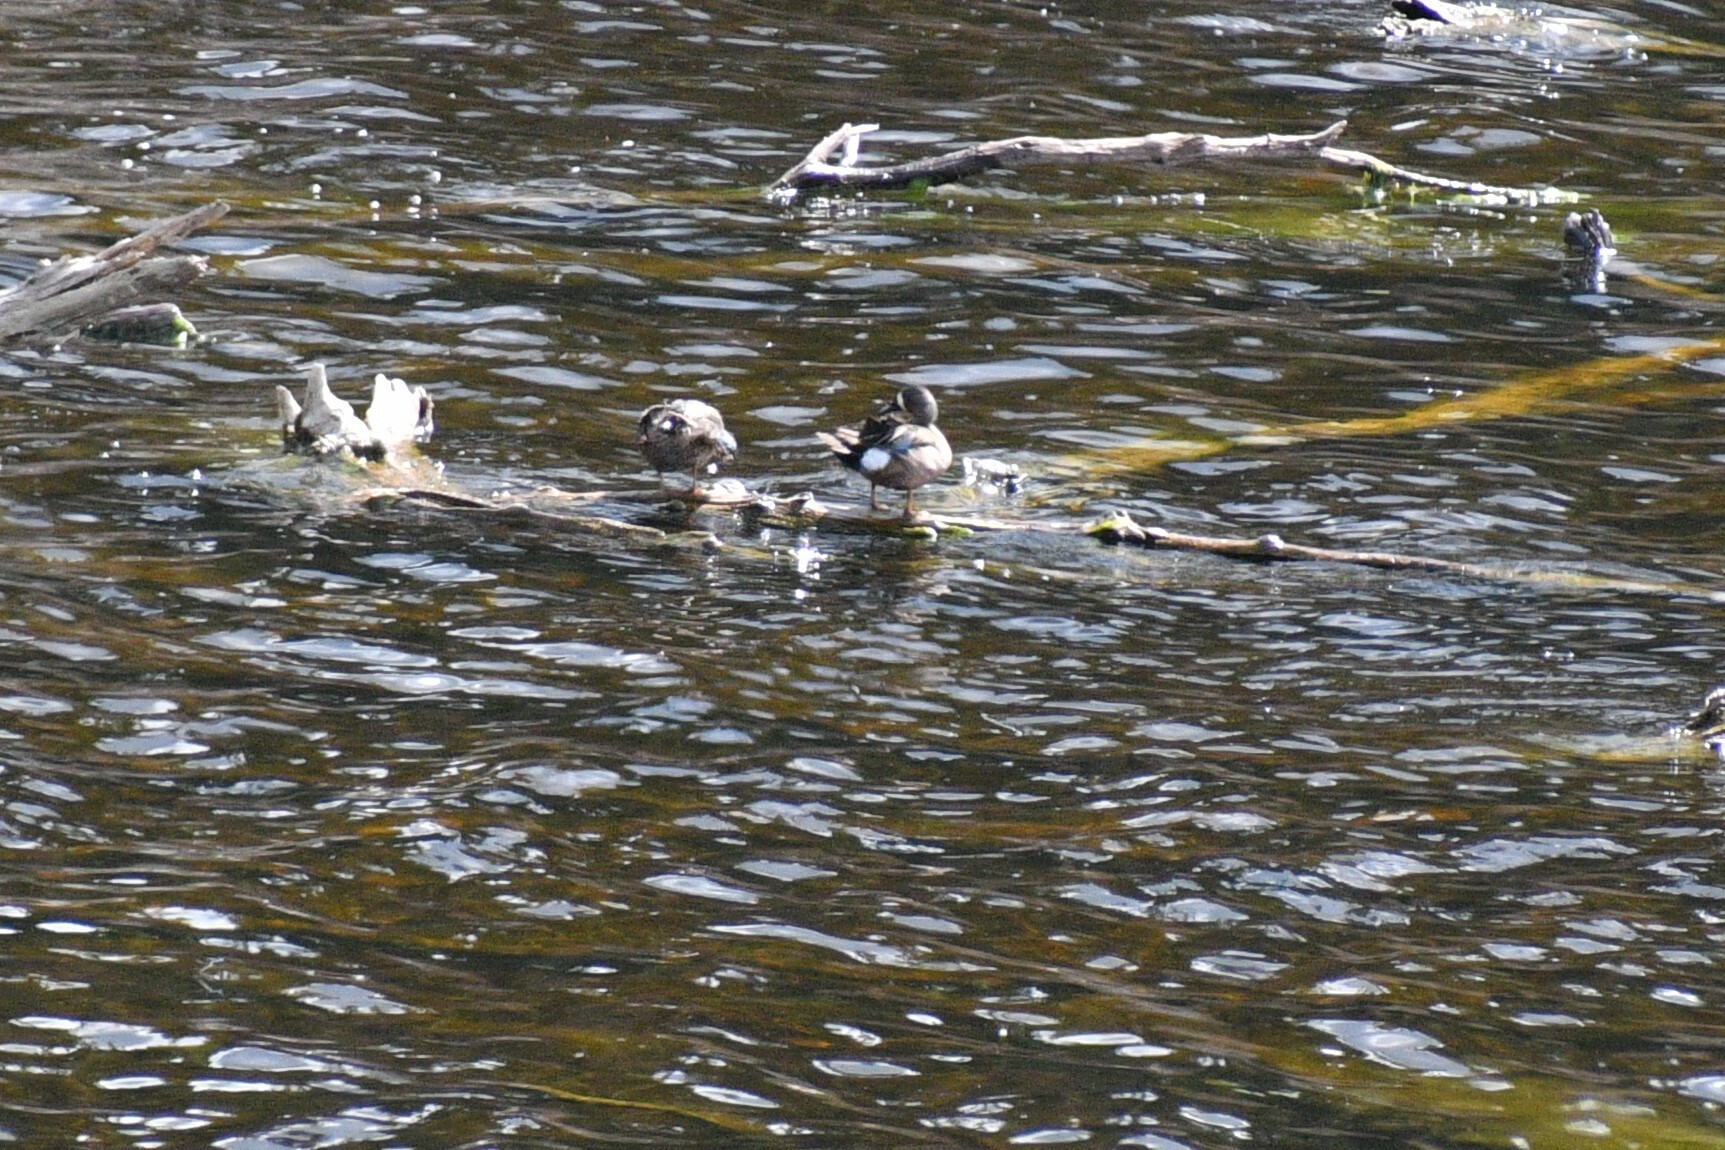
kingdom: Animalia
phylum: Chordata
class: Aves
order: Anseriformes
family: Anatidae
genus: Spatula
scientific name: Spatula discors
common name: Blue-winged teal
